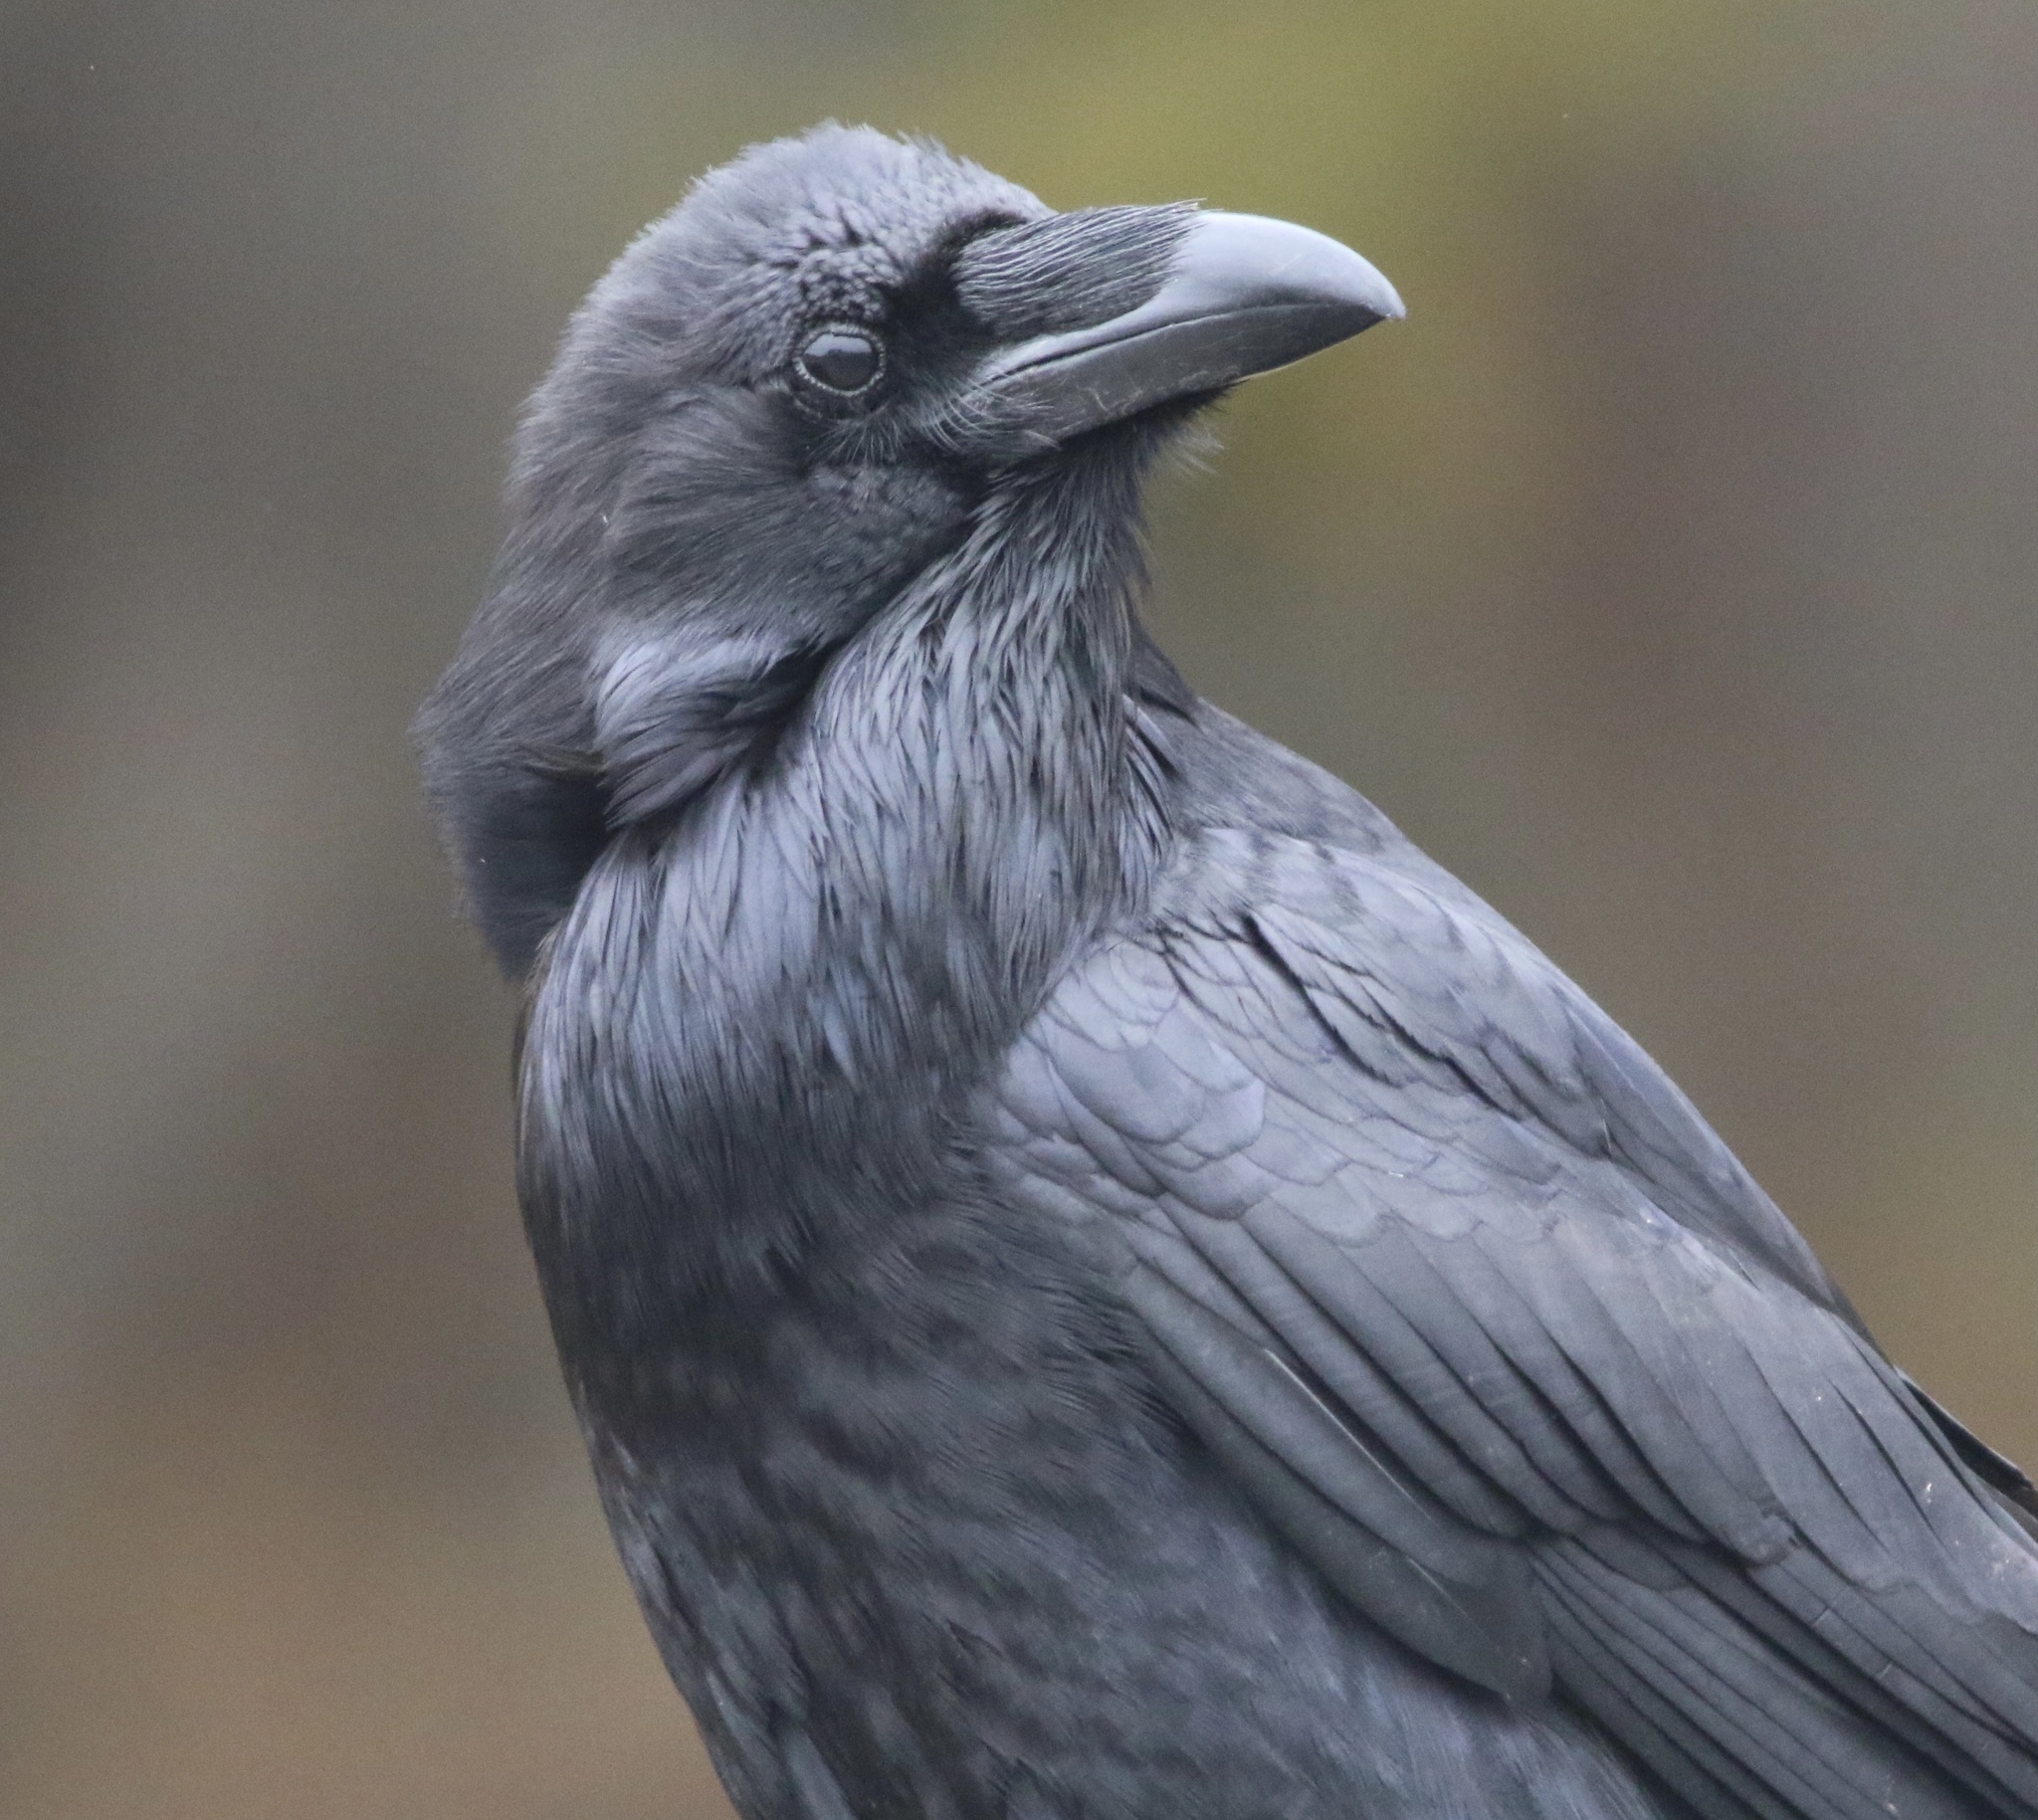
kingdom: Animalia
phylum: Chordata
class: Aves
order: Passeriformes
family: Corvidae
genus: Corvus
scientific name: Corvus corax
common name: Common raven
